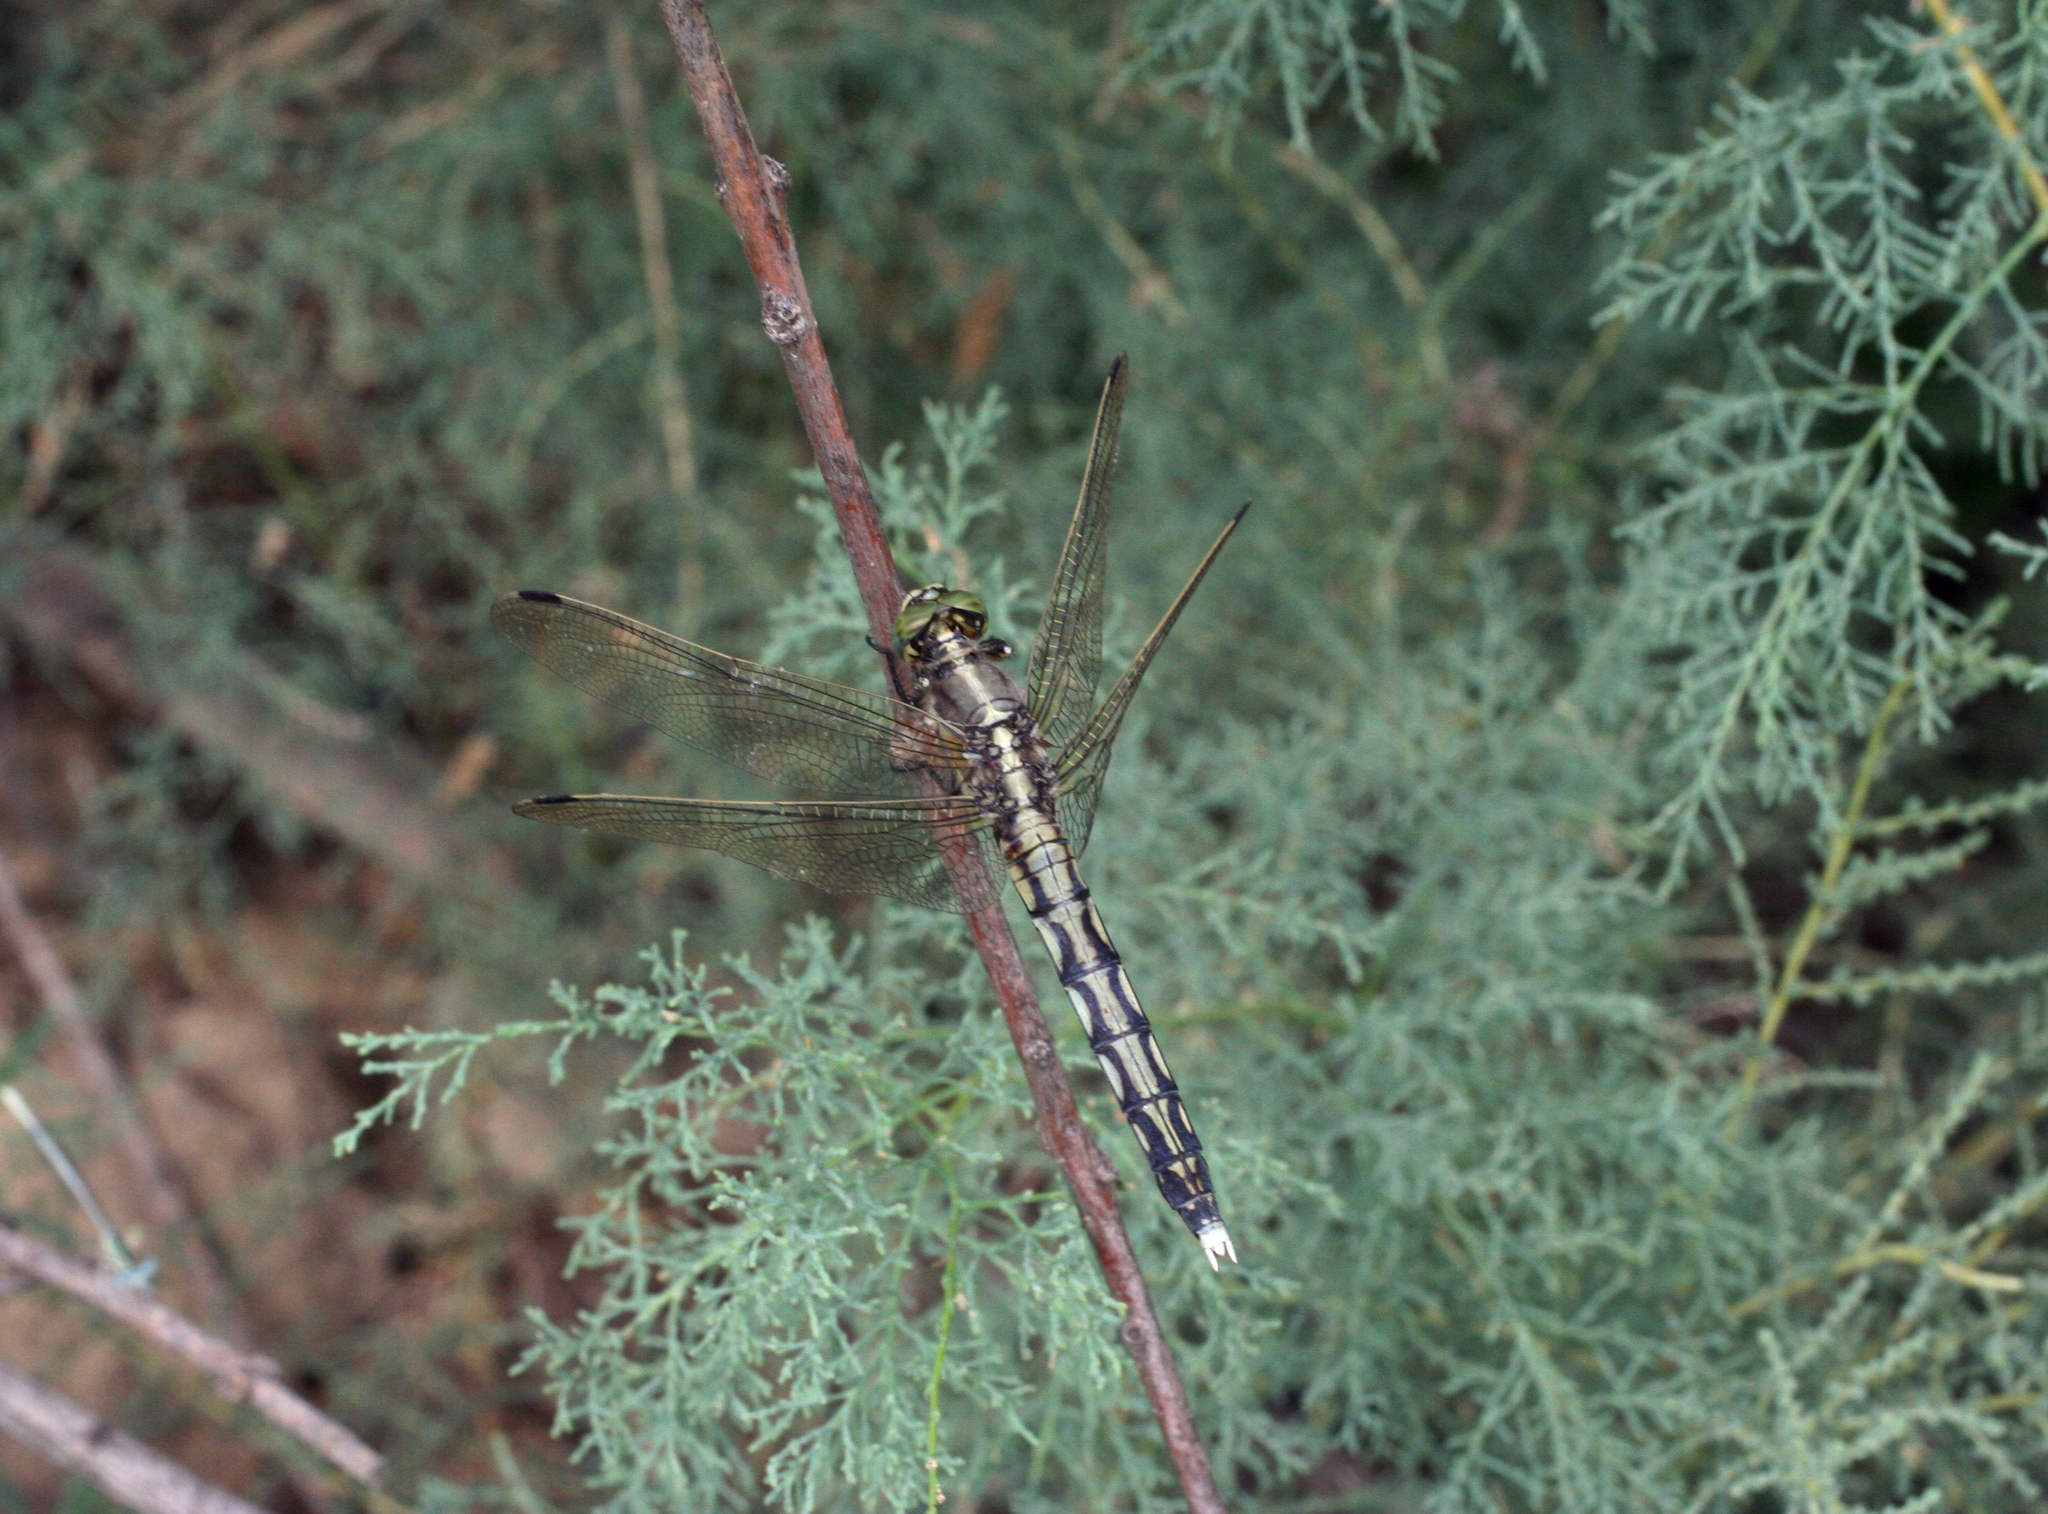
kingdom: Animalia
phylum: Arthropoda
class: Insecta
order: Odonata
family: Libellulidae
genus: Orthetrum
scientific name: Orthetrum albistylum
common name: White-tailed skimmer
